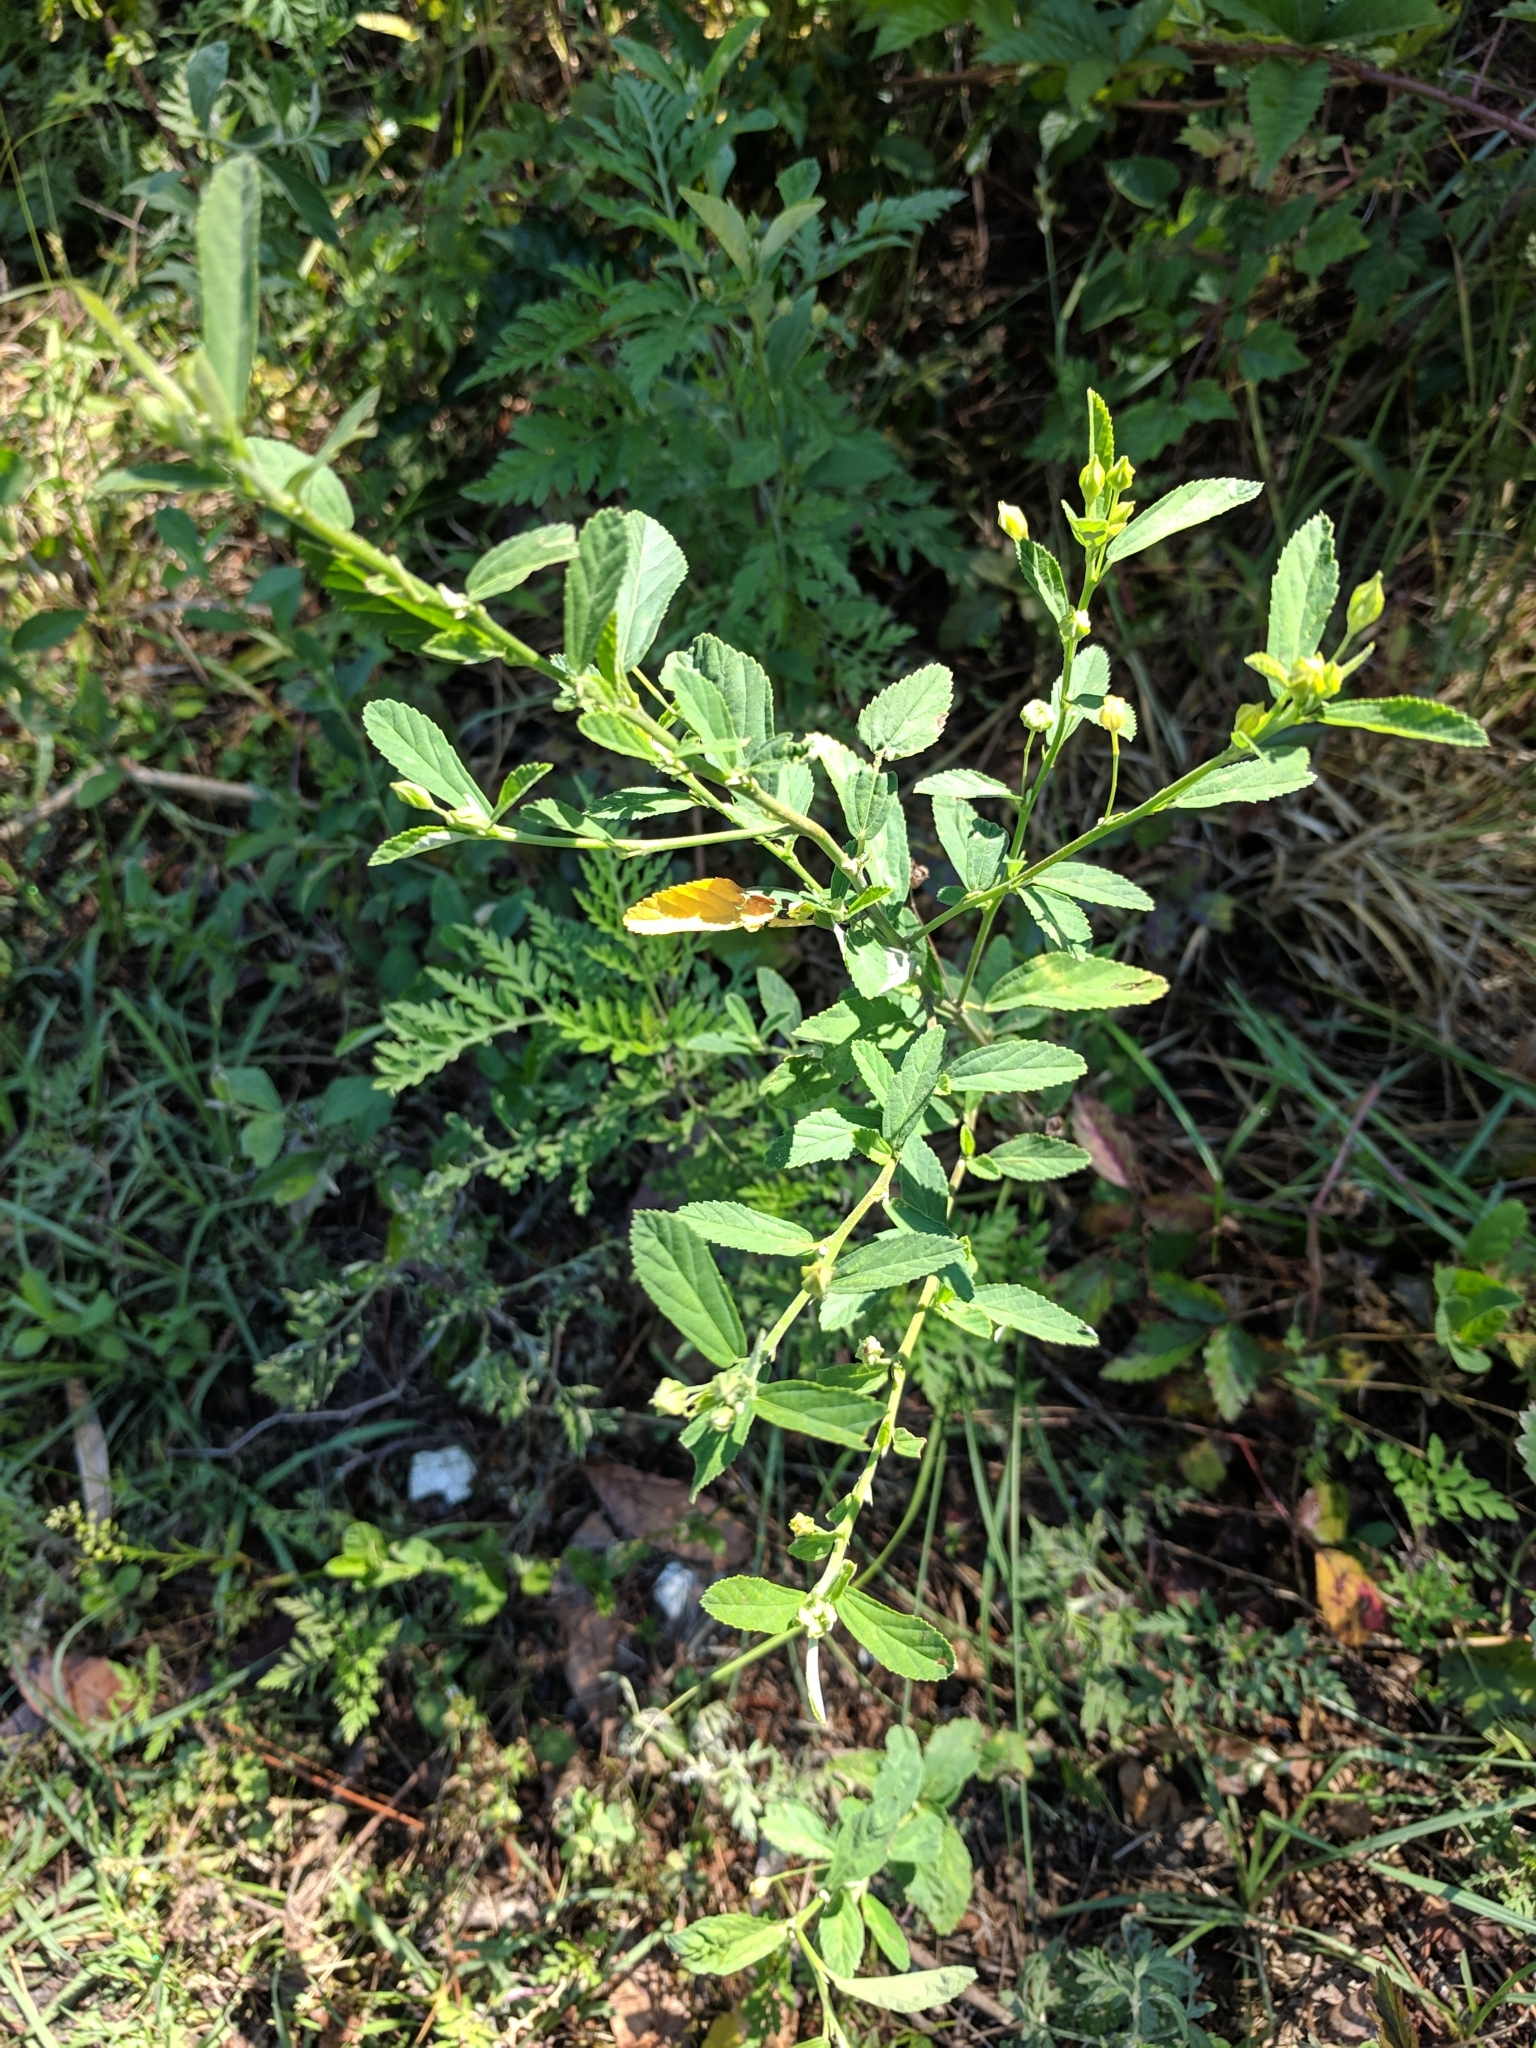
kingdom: Plantae
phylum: Tracheophyta
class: Magnoliopsida
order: Malvales
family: Malvaceae
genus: Sida
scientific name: Sida rhombifolia
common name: Queensland-hemp
